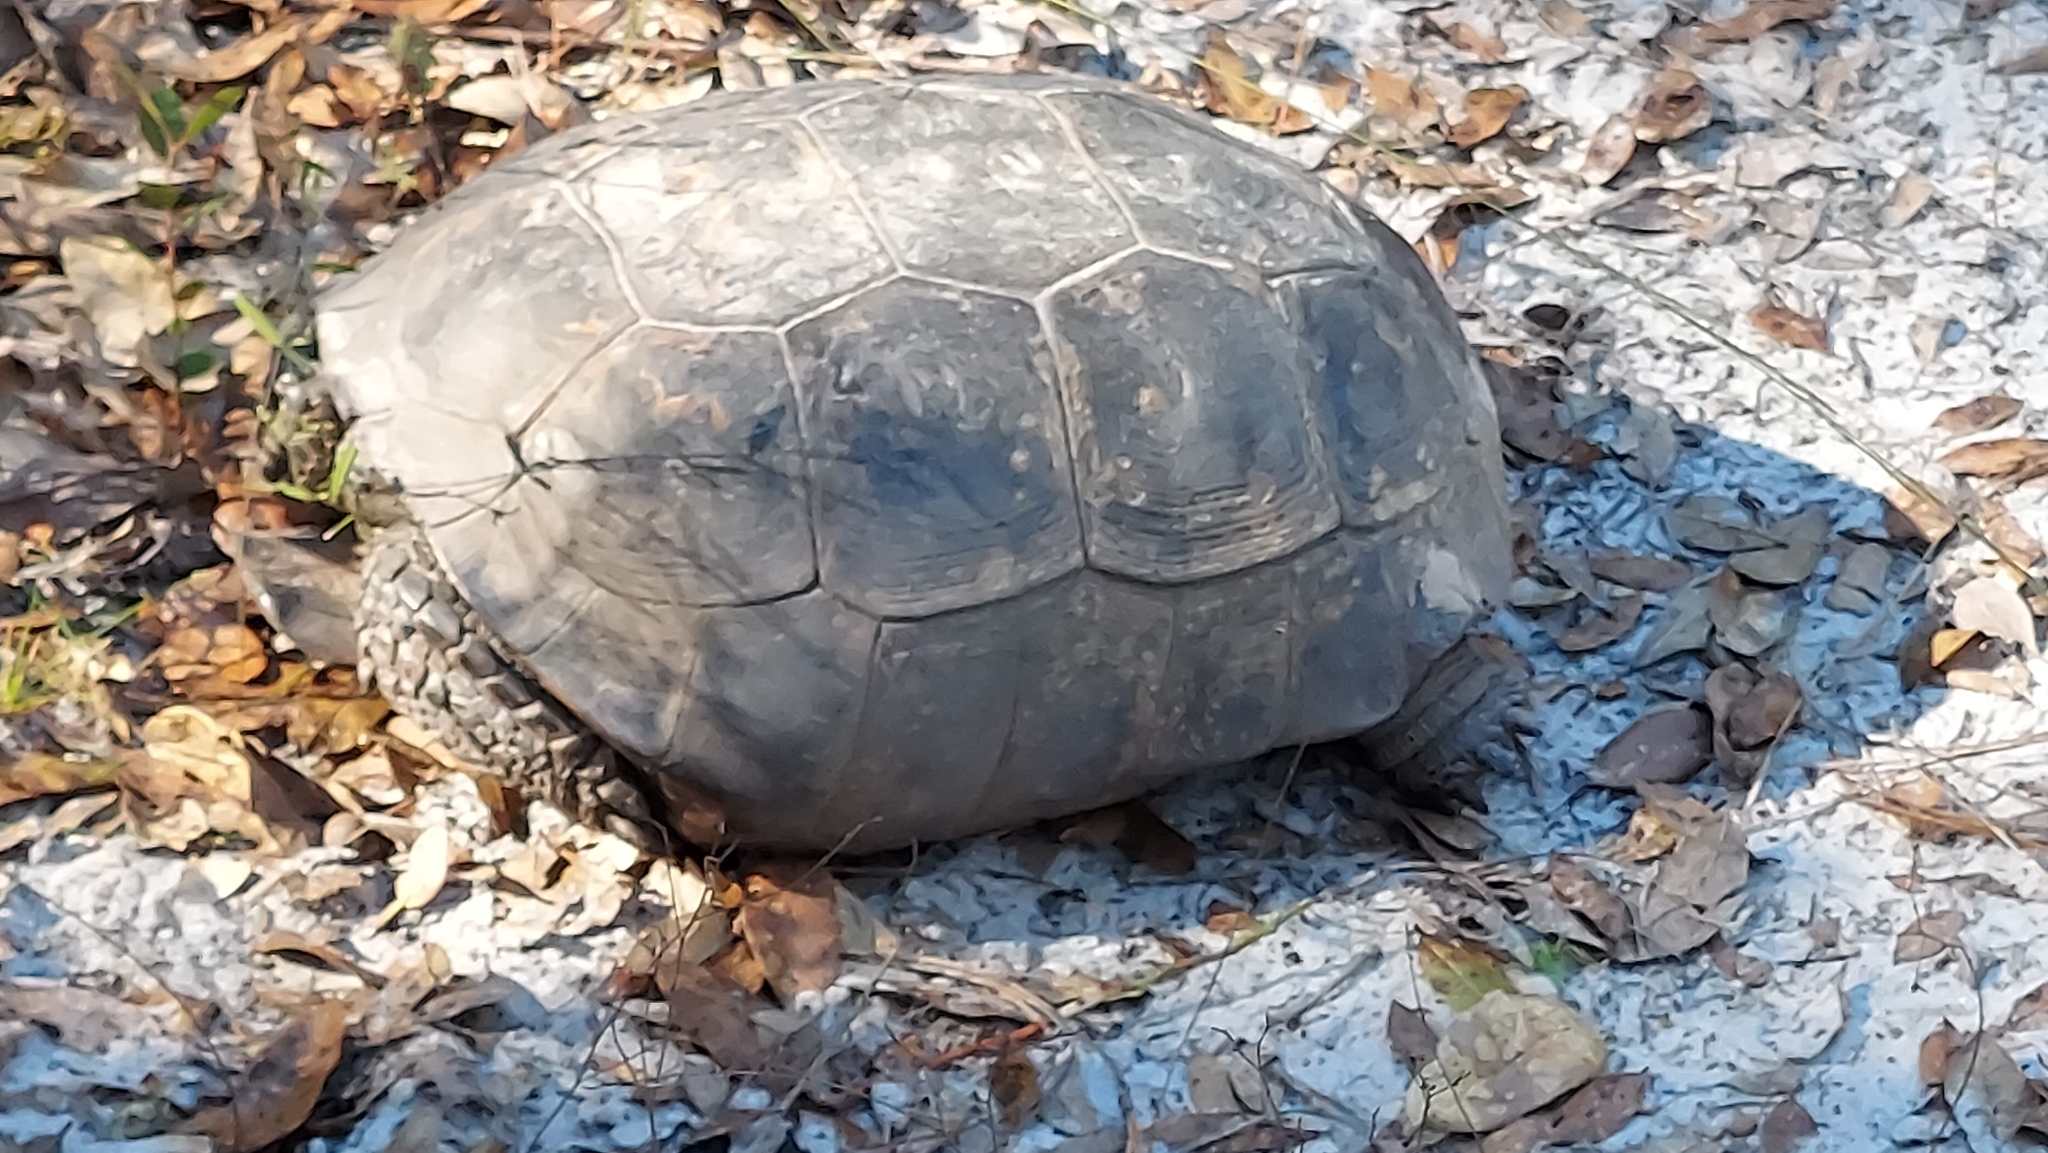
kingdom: Animalia
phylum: Chordata
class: Testudines
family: Testudinidae
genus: Gopherus
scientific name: Gopherus polyphemus
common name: Florida gopher tortoise
